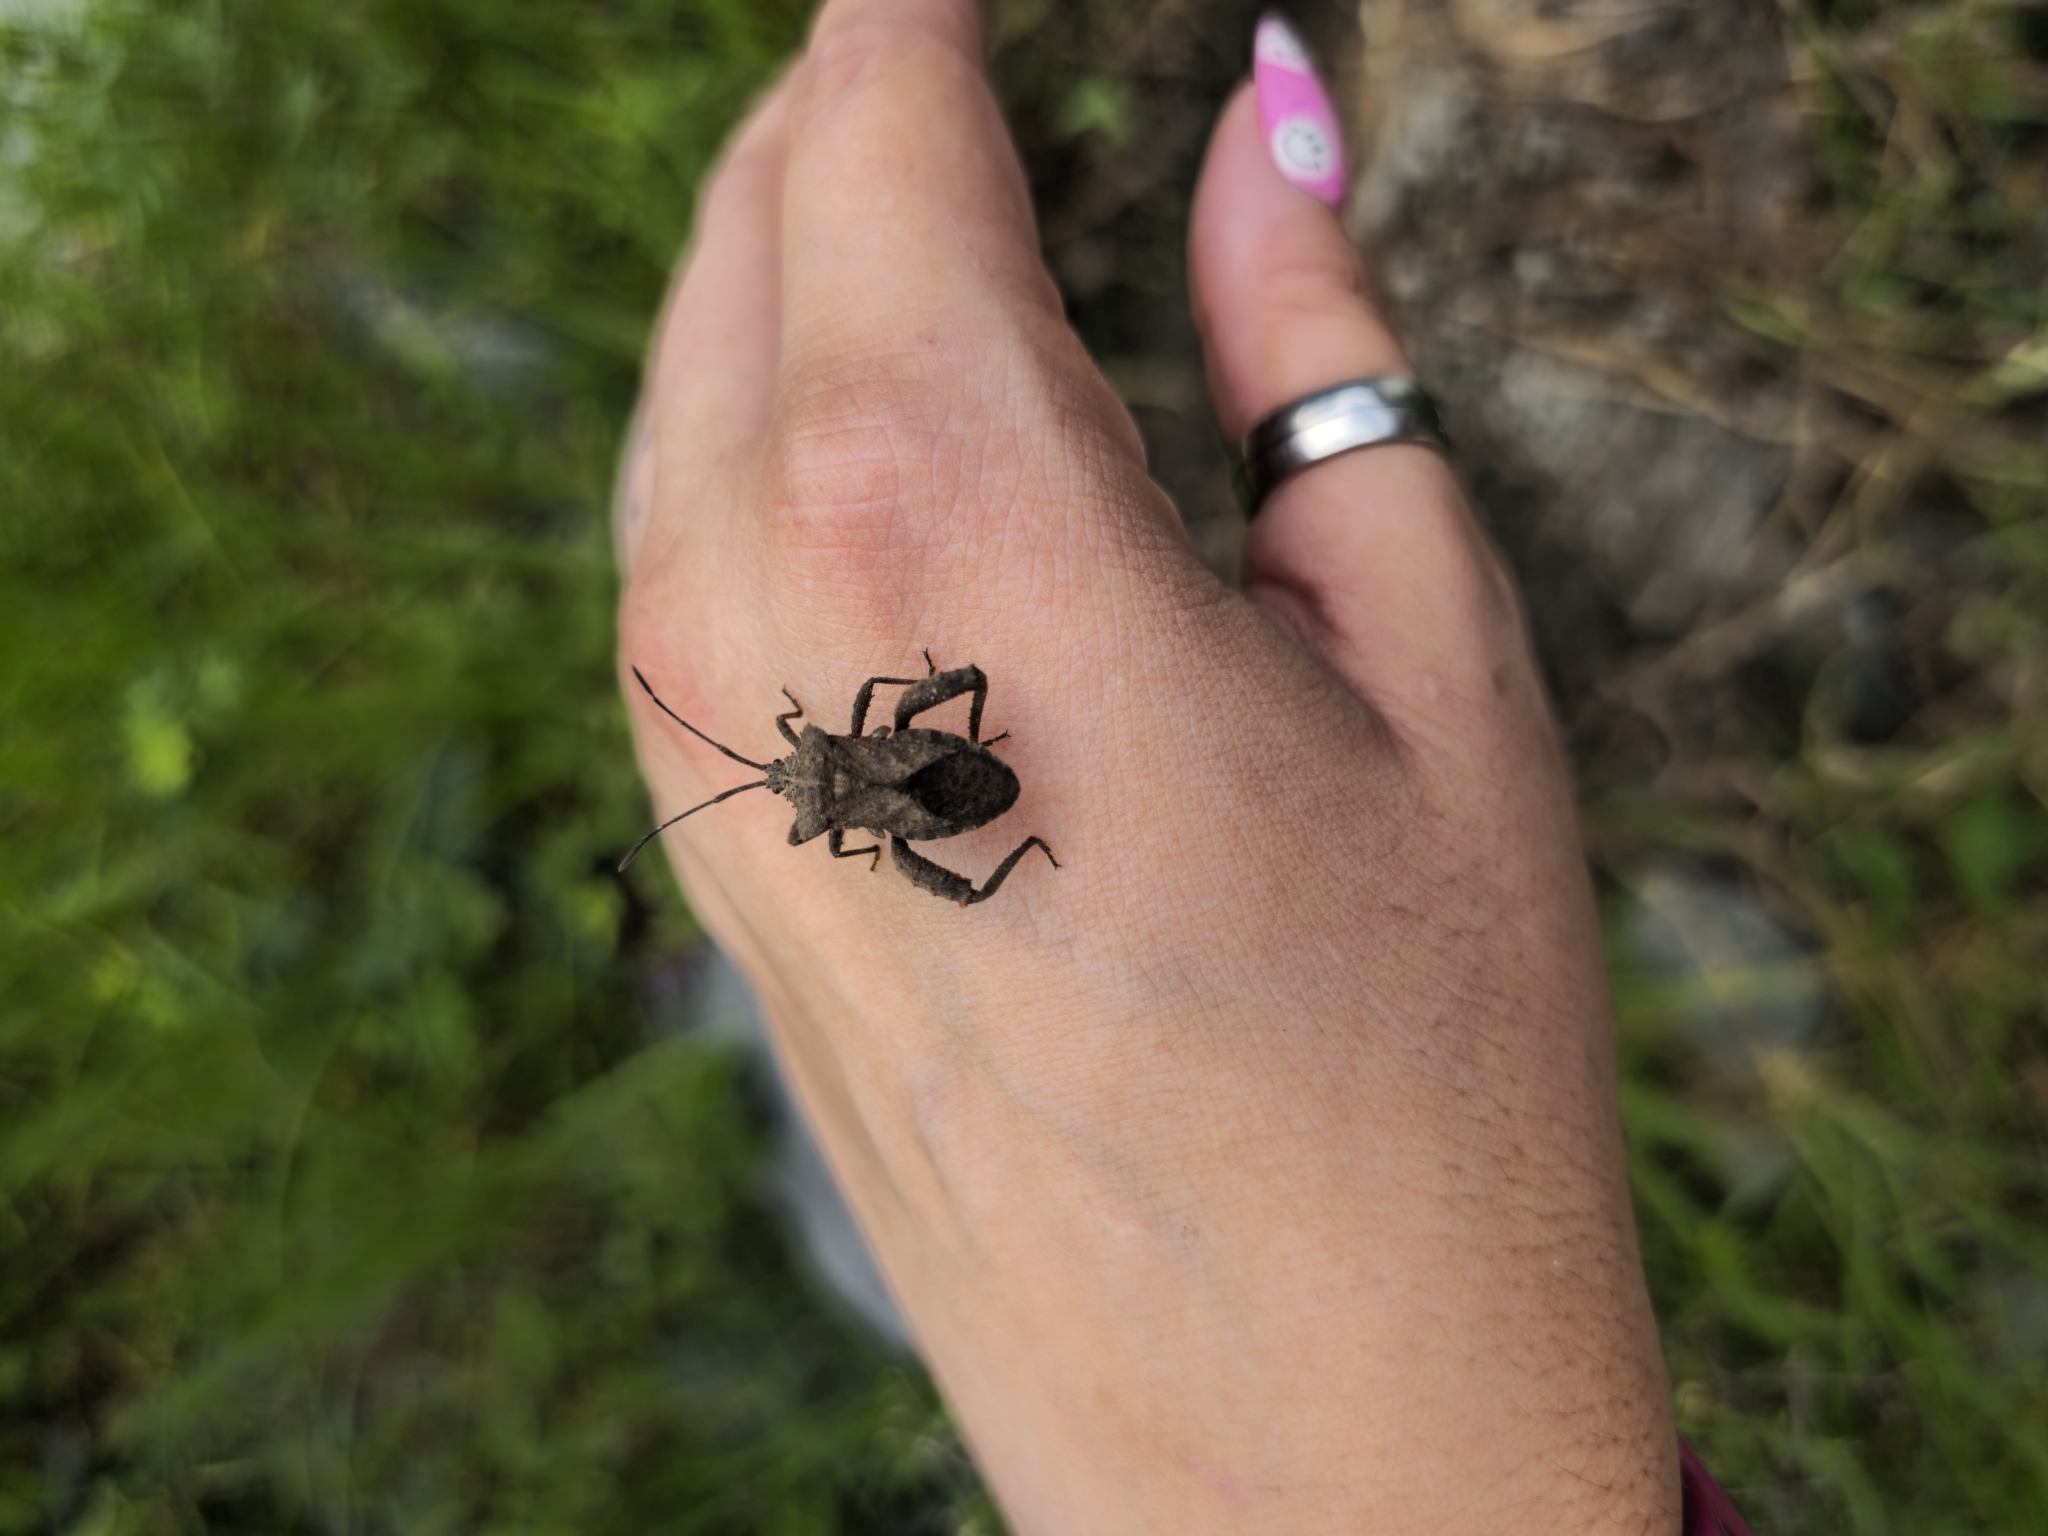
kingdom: Animalia
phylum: Arthropoda
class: Insecta
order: Hemiptera
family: Coreidae
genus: Camptischium
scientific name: Camptischium clavipes
